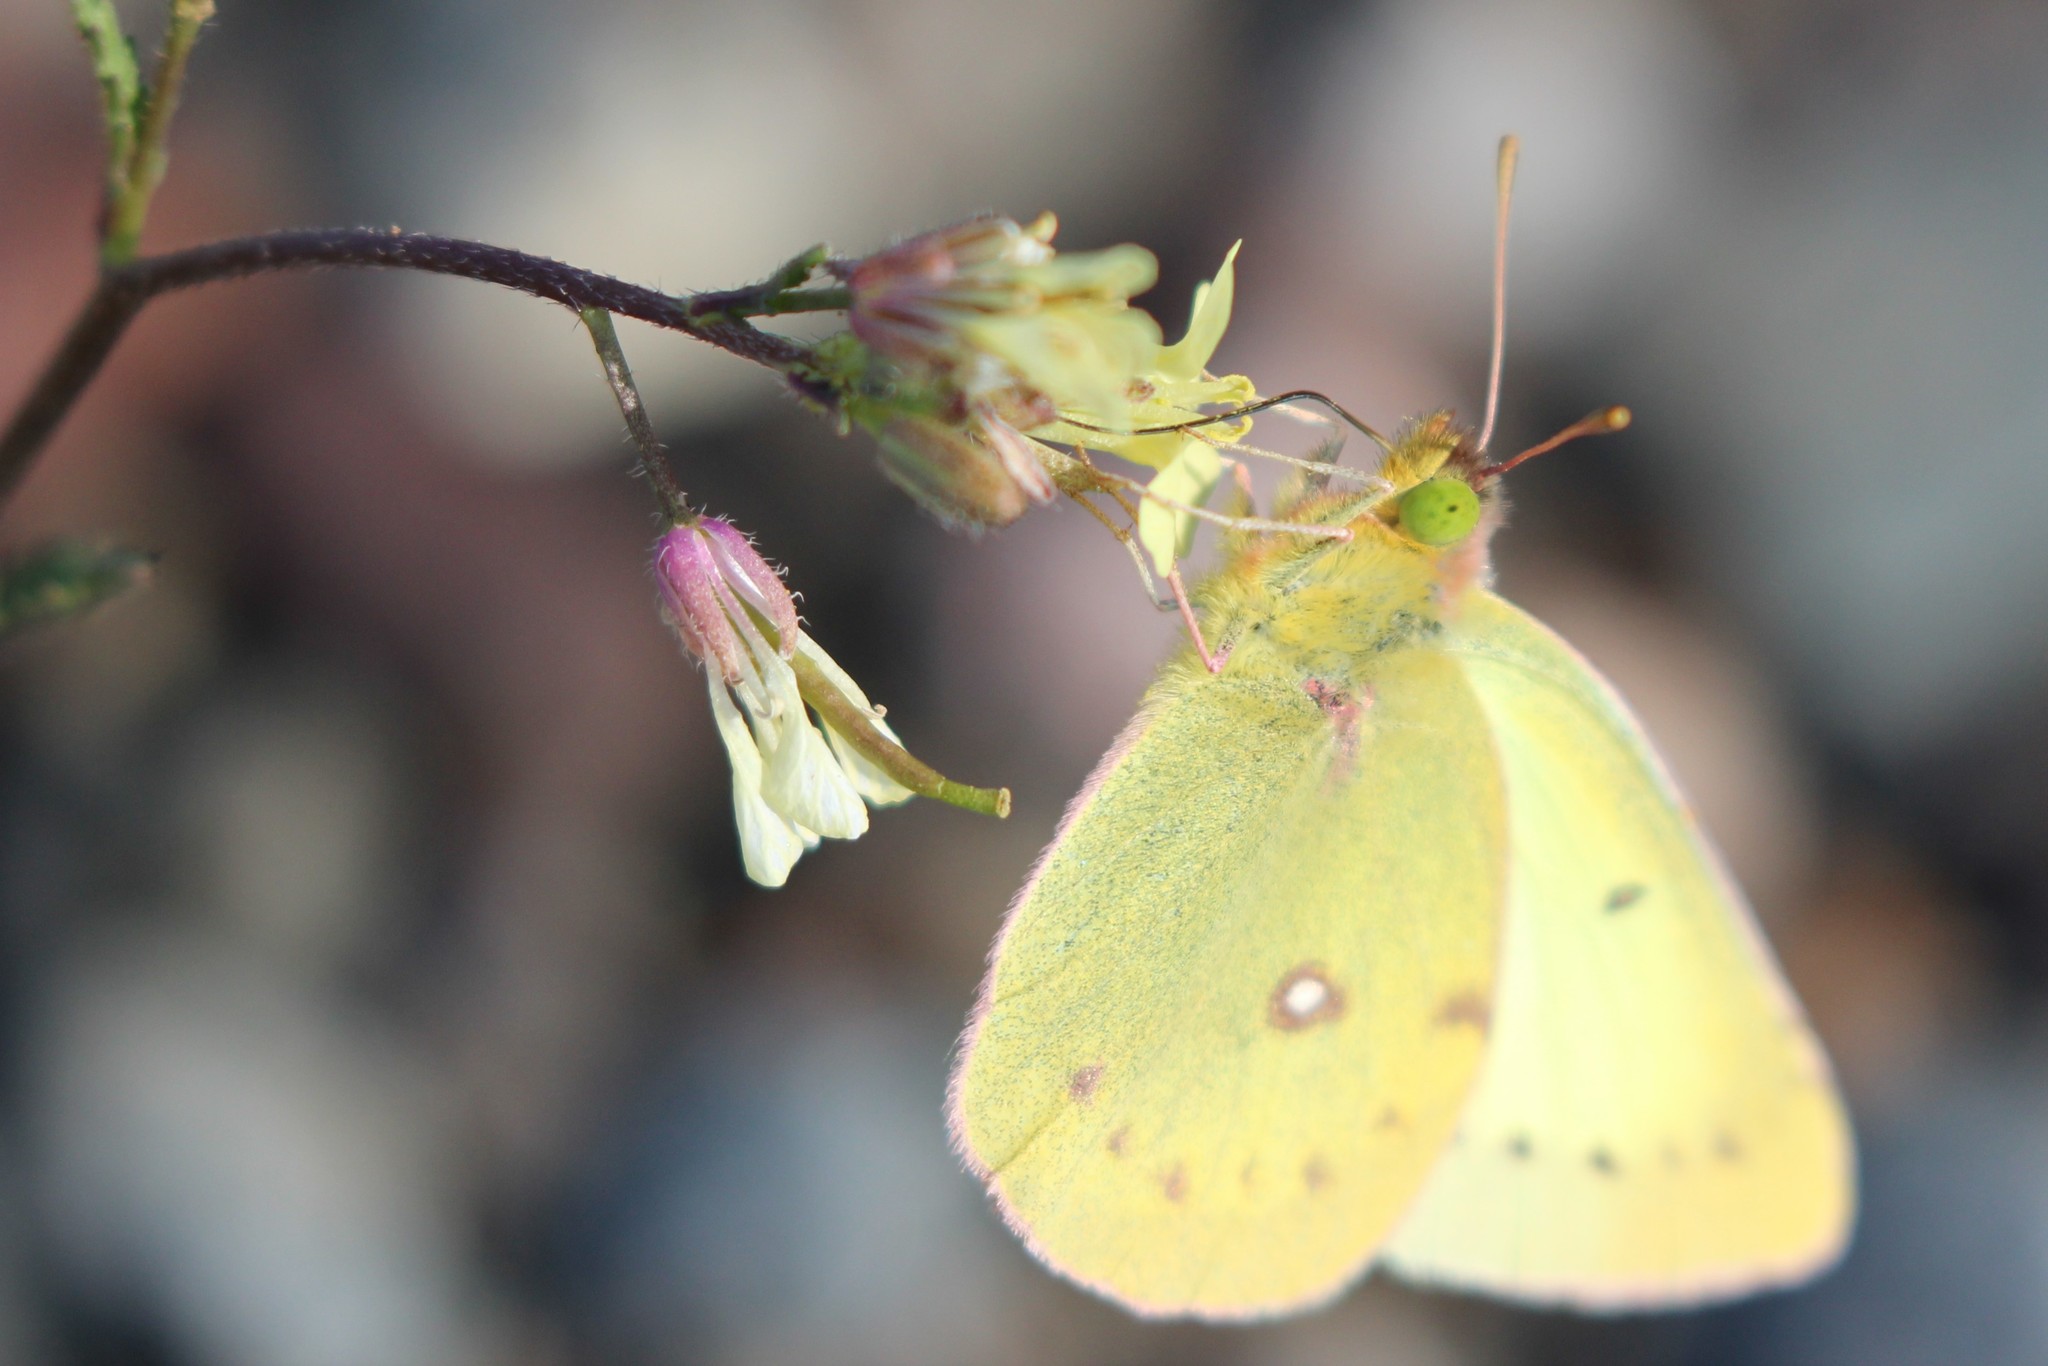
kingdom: Animalia
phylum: Arthropoda
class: Insecta
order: Lepidoptera
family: Pieridae
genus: Colias
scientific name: Colias philodice
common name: Clouded sulphur
